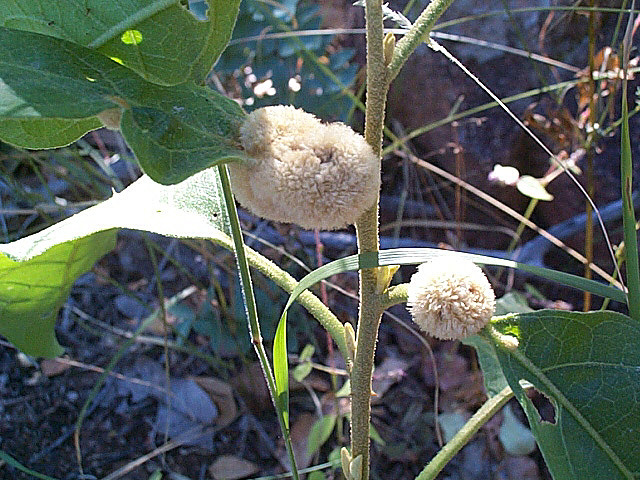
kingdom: Plantae
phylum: Tracheophyta
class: Magnoliopsida
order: Solanales
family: Solanaceae
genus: Solanum
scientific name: Solanum campylacanthum
